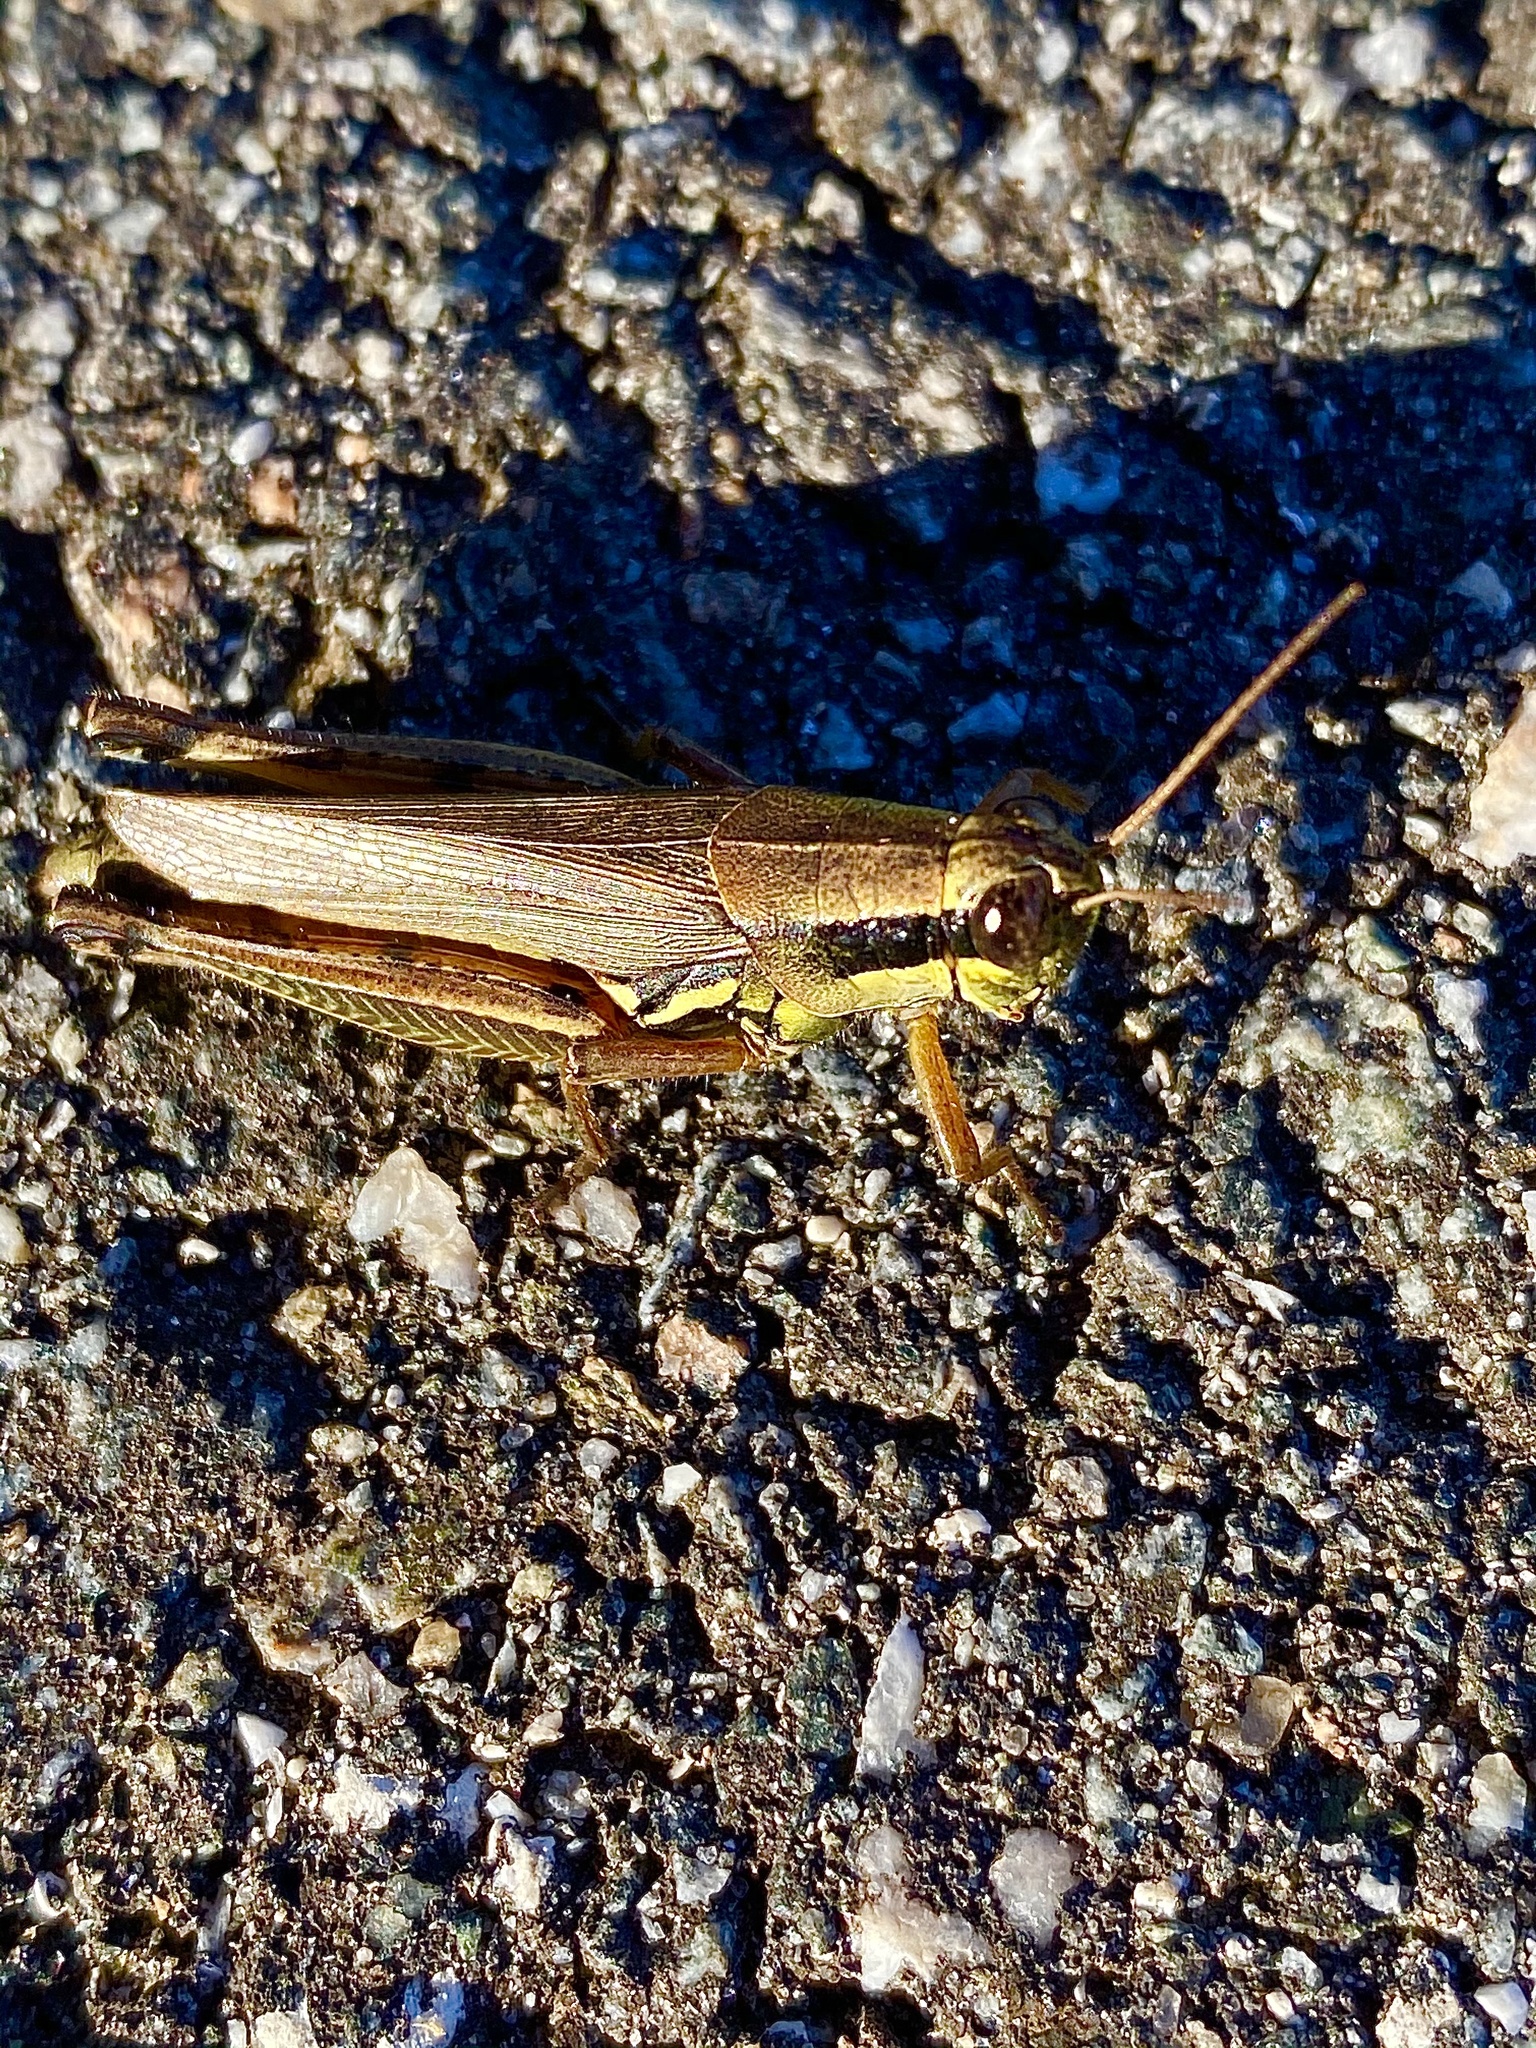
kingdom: Animalia
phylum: Arthropoda
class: Insecta
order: Orthoptera
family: Acrididae
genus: Paroxya
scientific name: Paroxya atlantica
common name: Atlantic grasshopper
